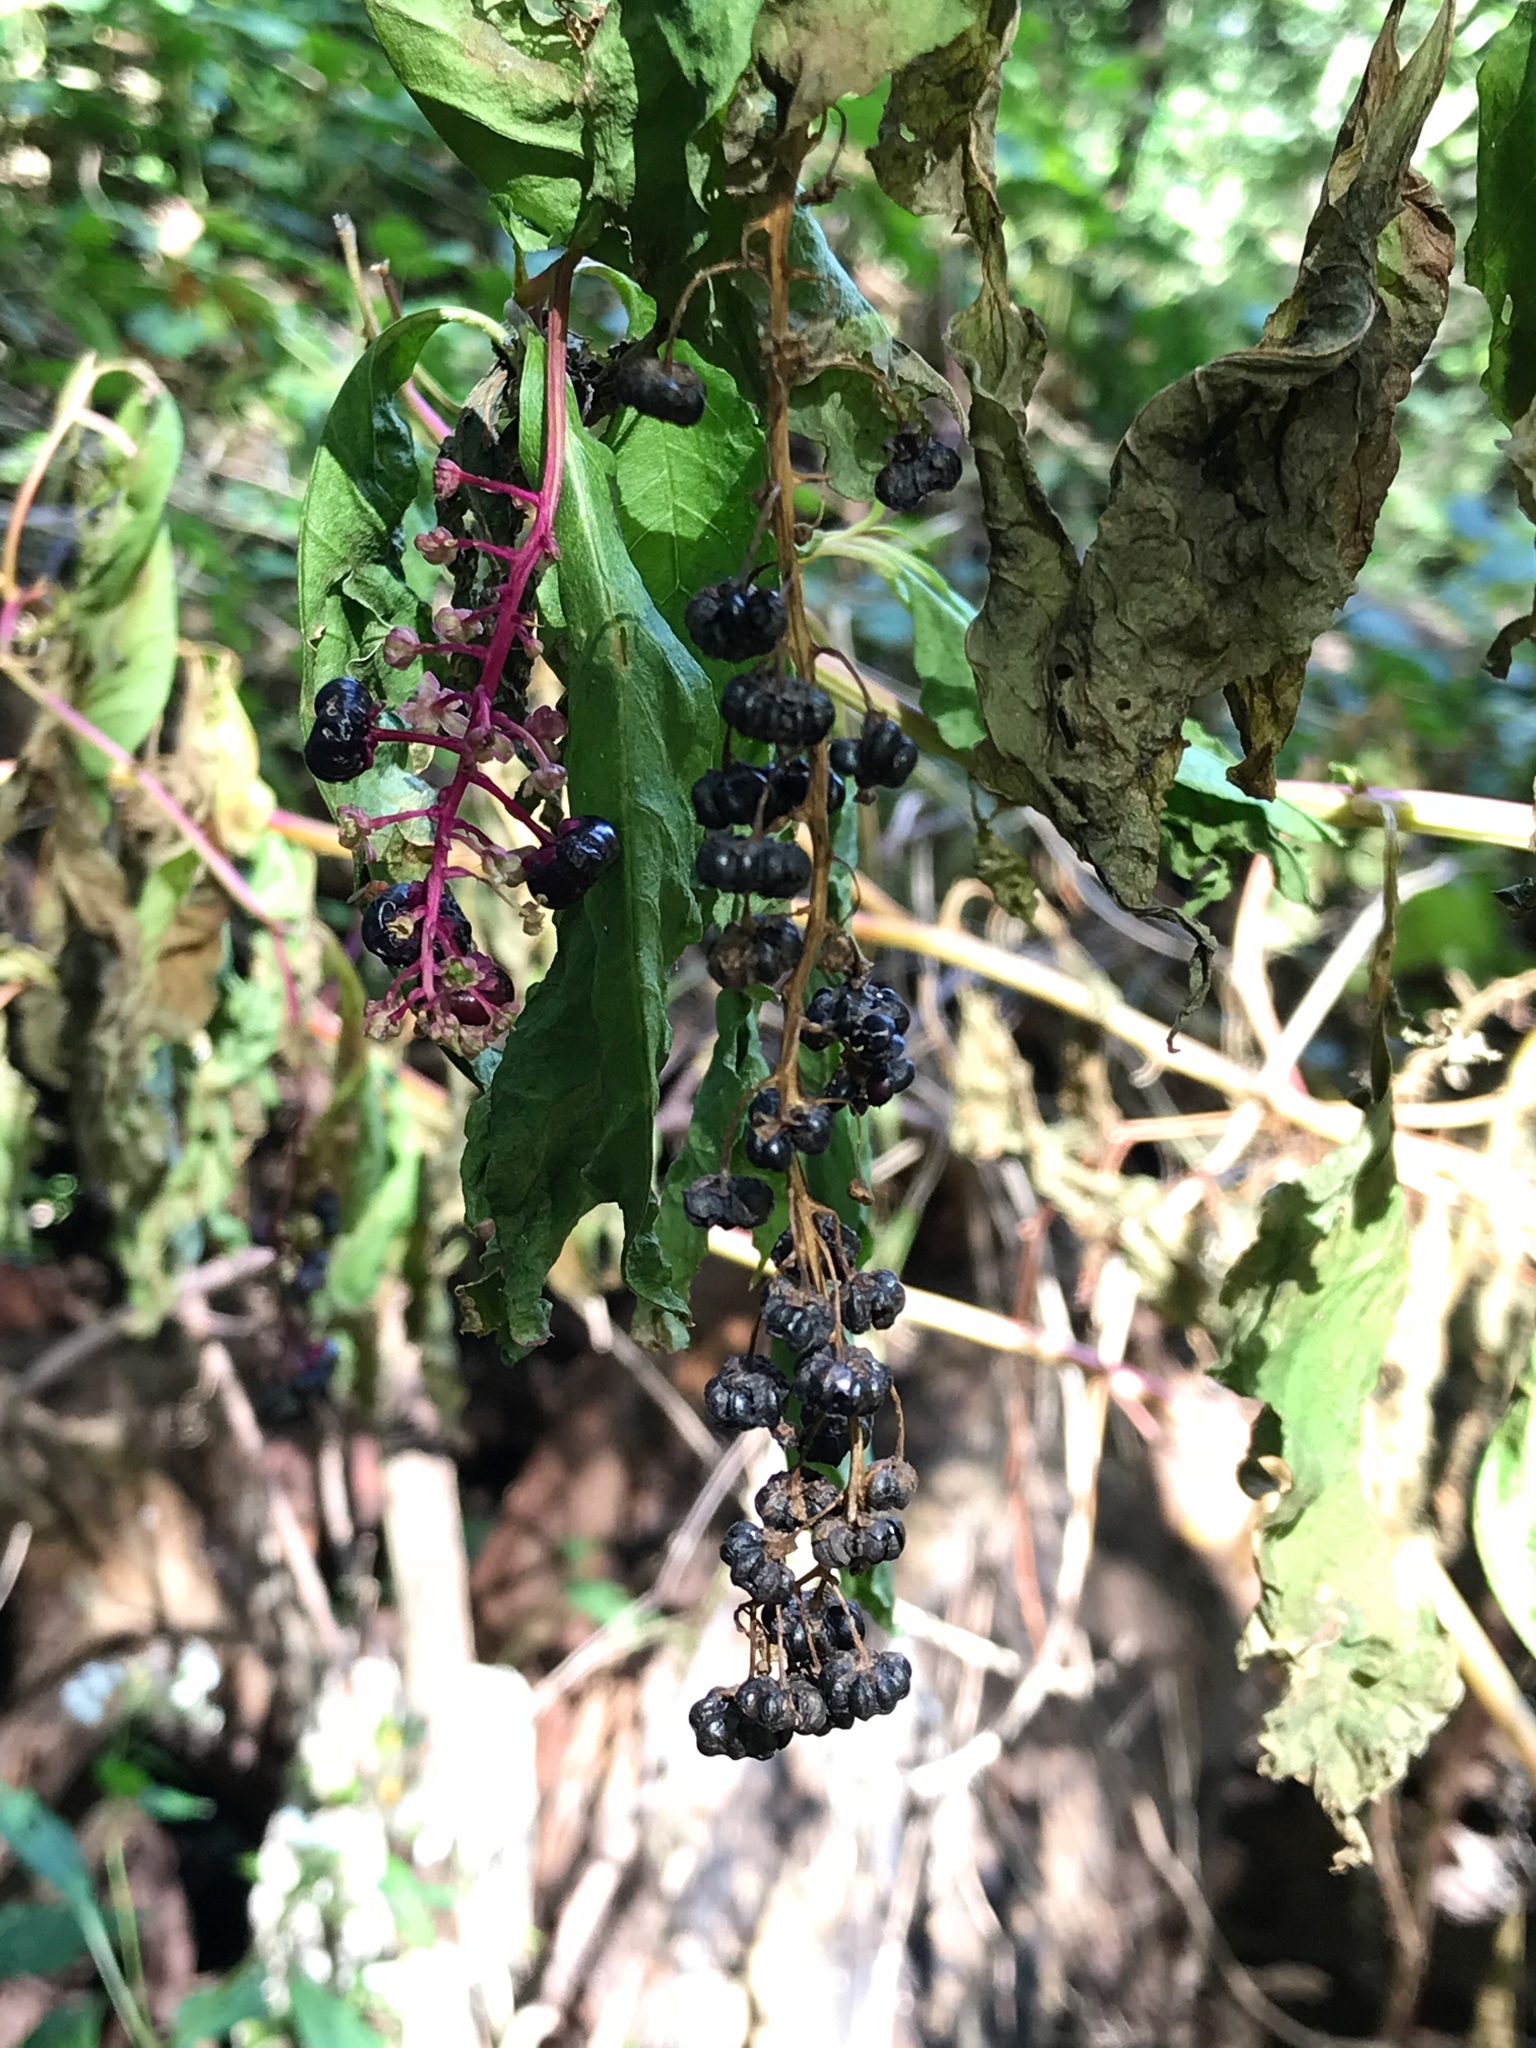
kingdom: Plantae
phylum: Tracheophyta
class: Magnoliopsida
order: Caryophyllales
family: Phytolaccaceae
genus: Phytolacca
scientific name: Phytolacca americana
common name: American pokeweed
